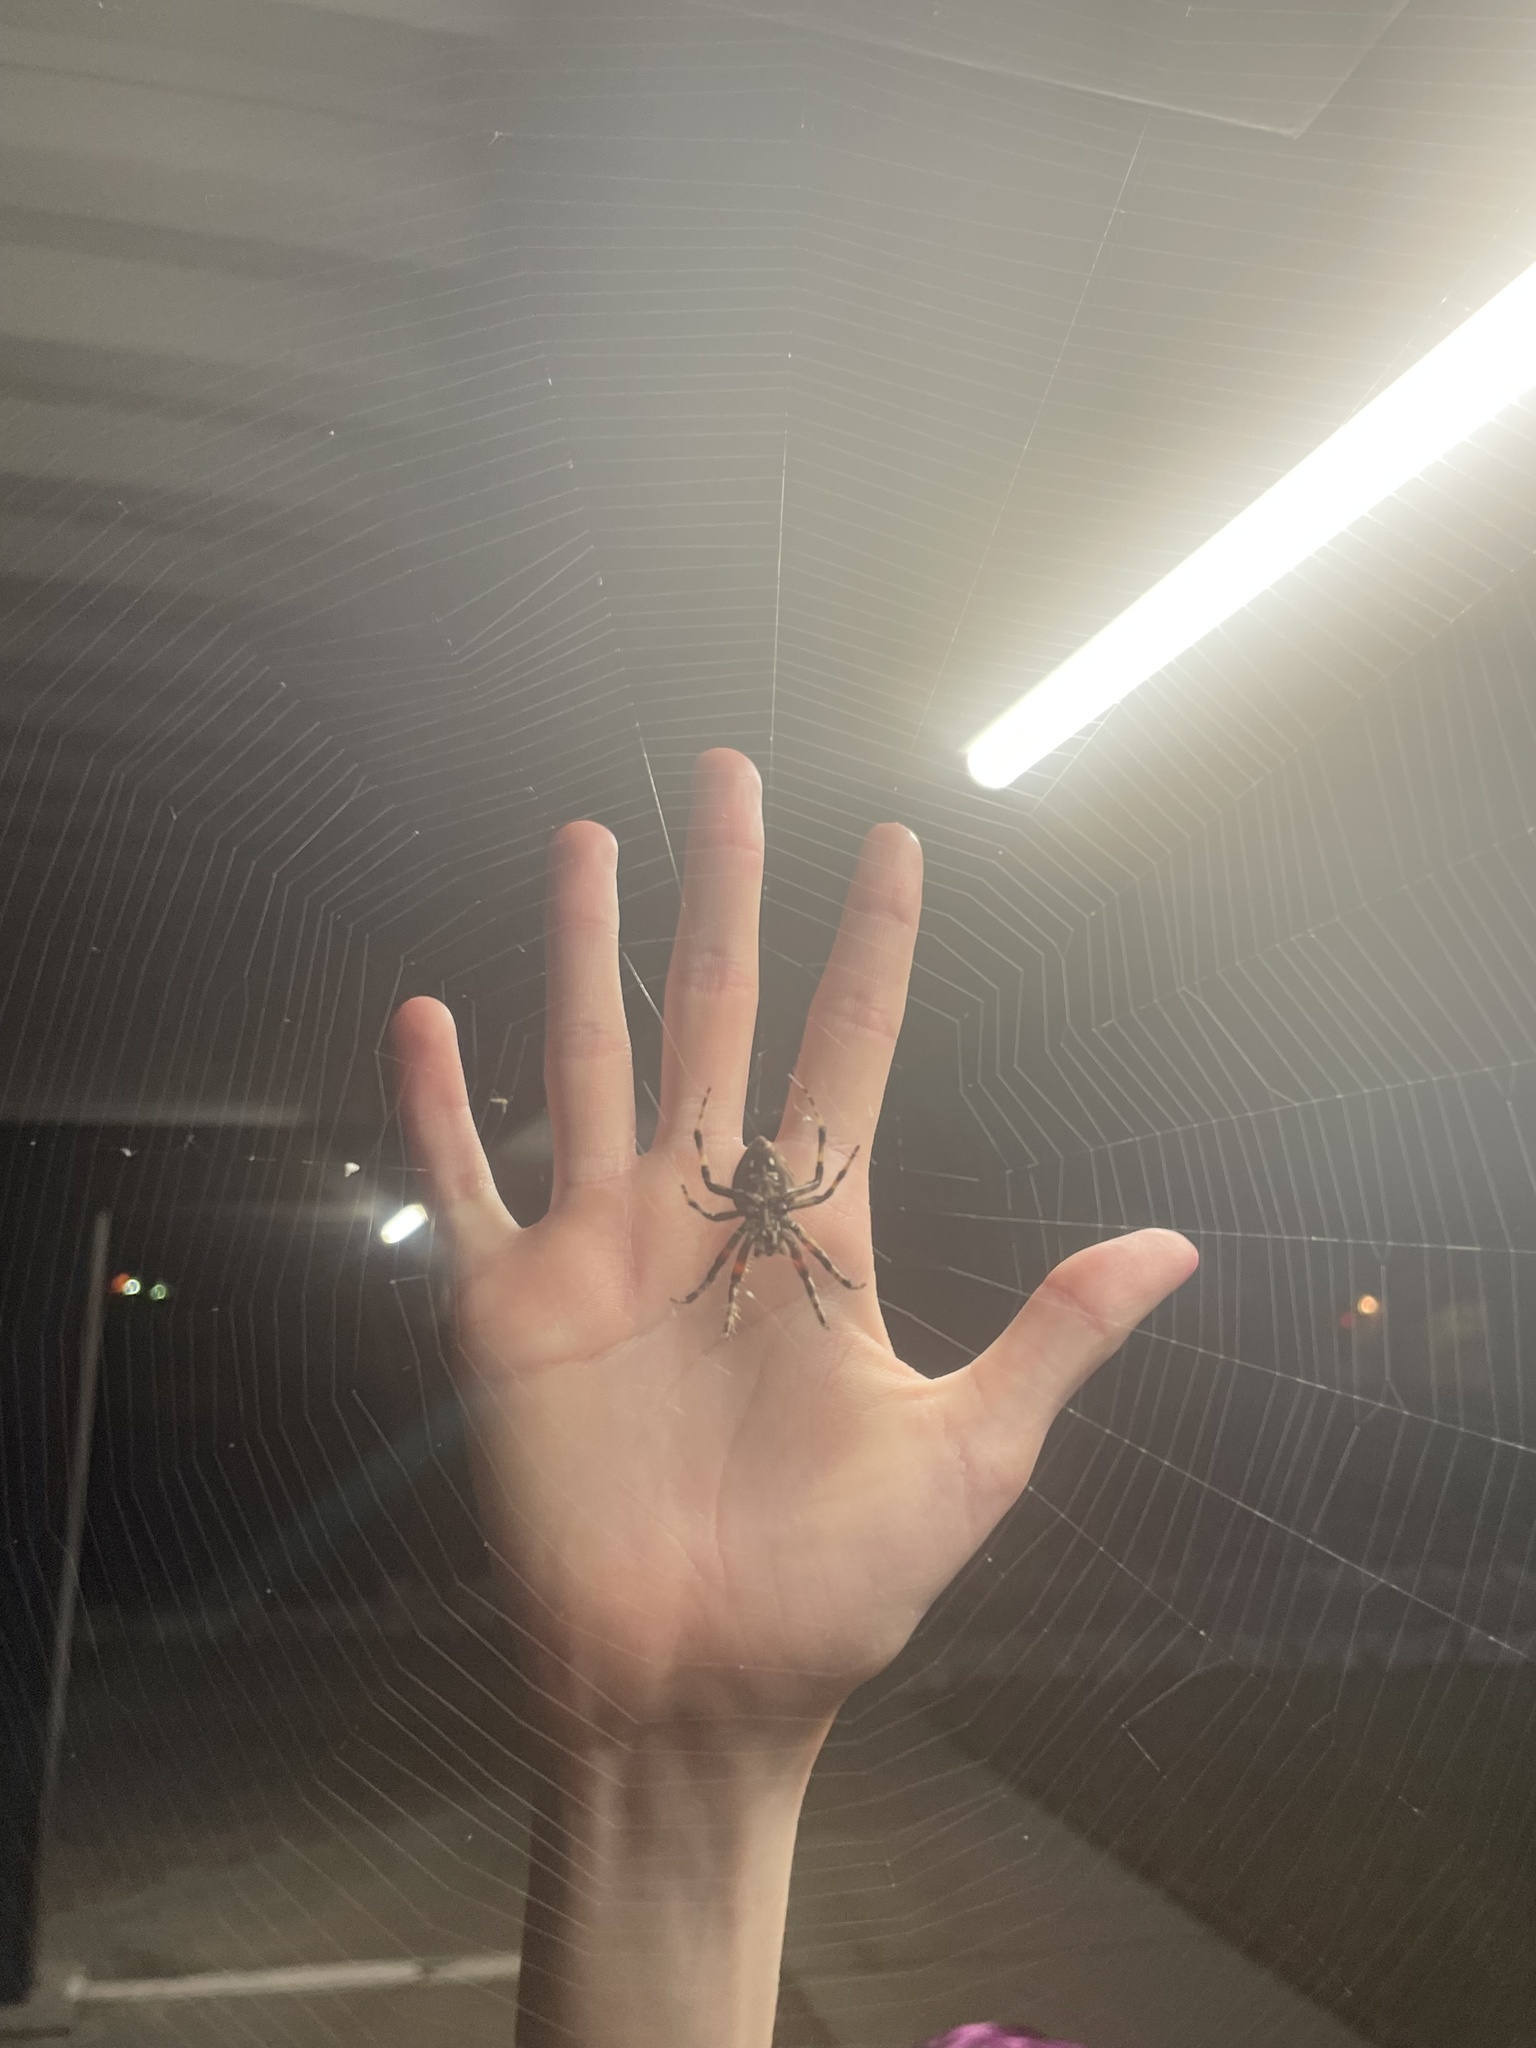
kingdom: Animalia
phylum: Arthropoda
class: Arachnida
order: Araneae
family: Araneidae
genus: Neoscona
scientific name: Neoscona crucifera
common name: Spotted orbweaver
